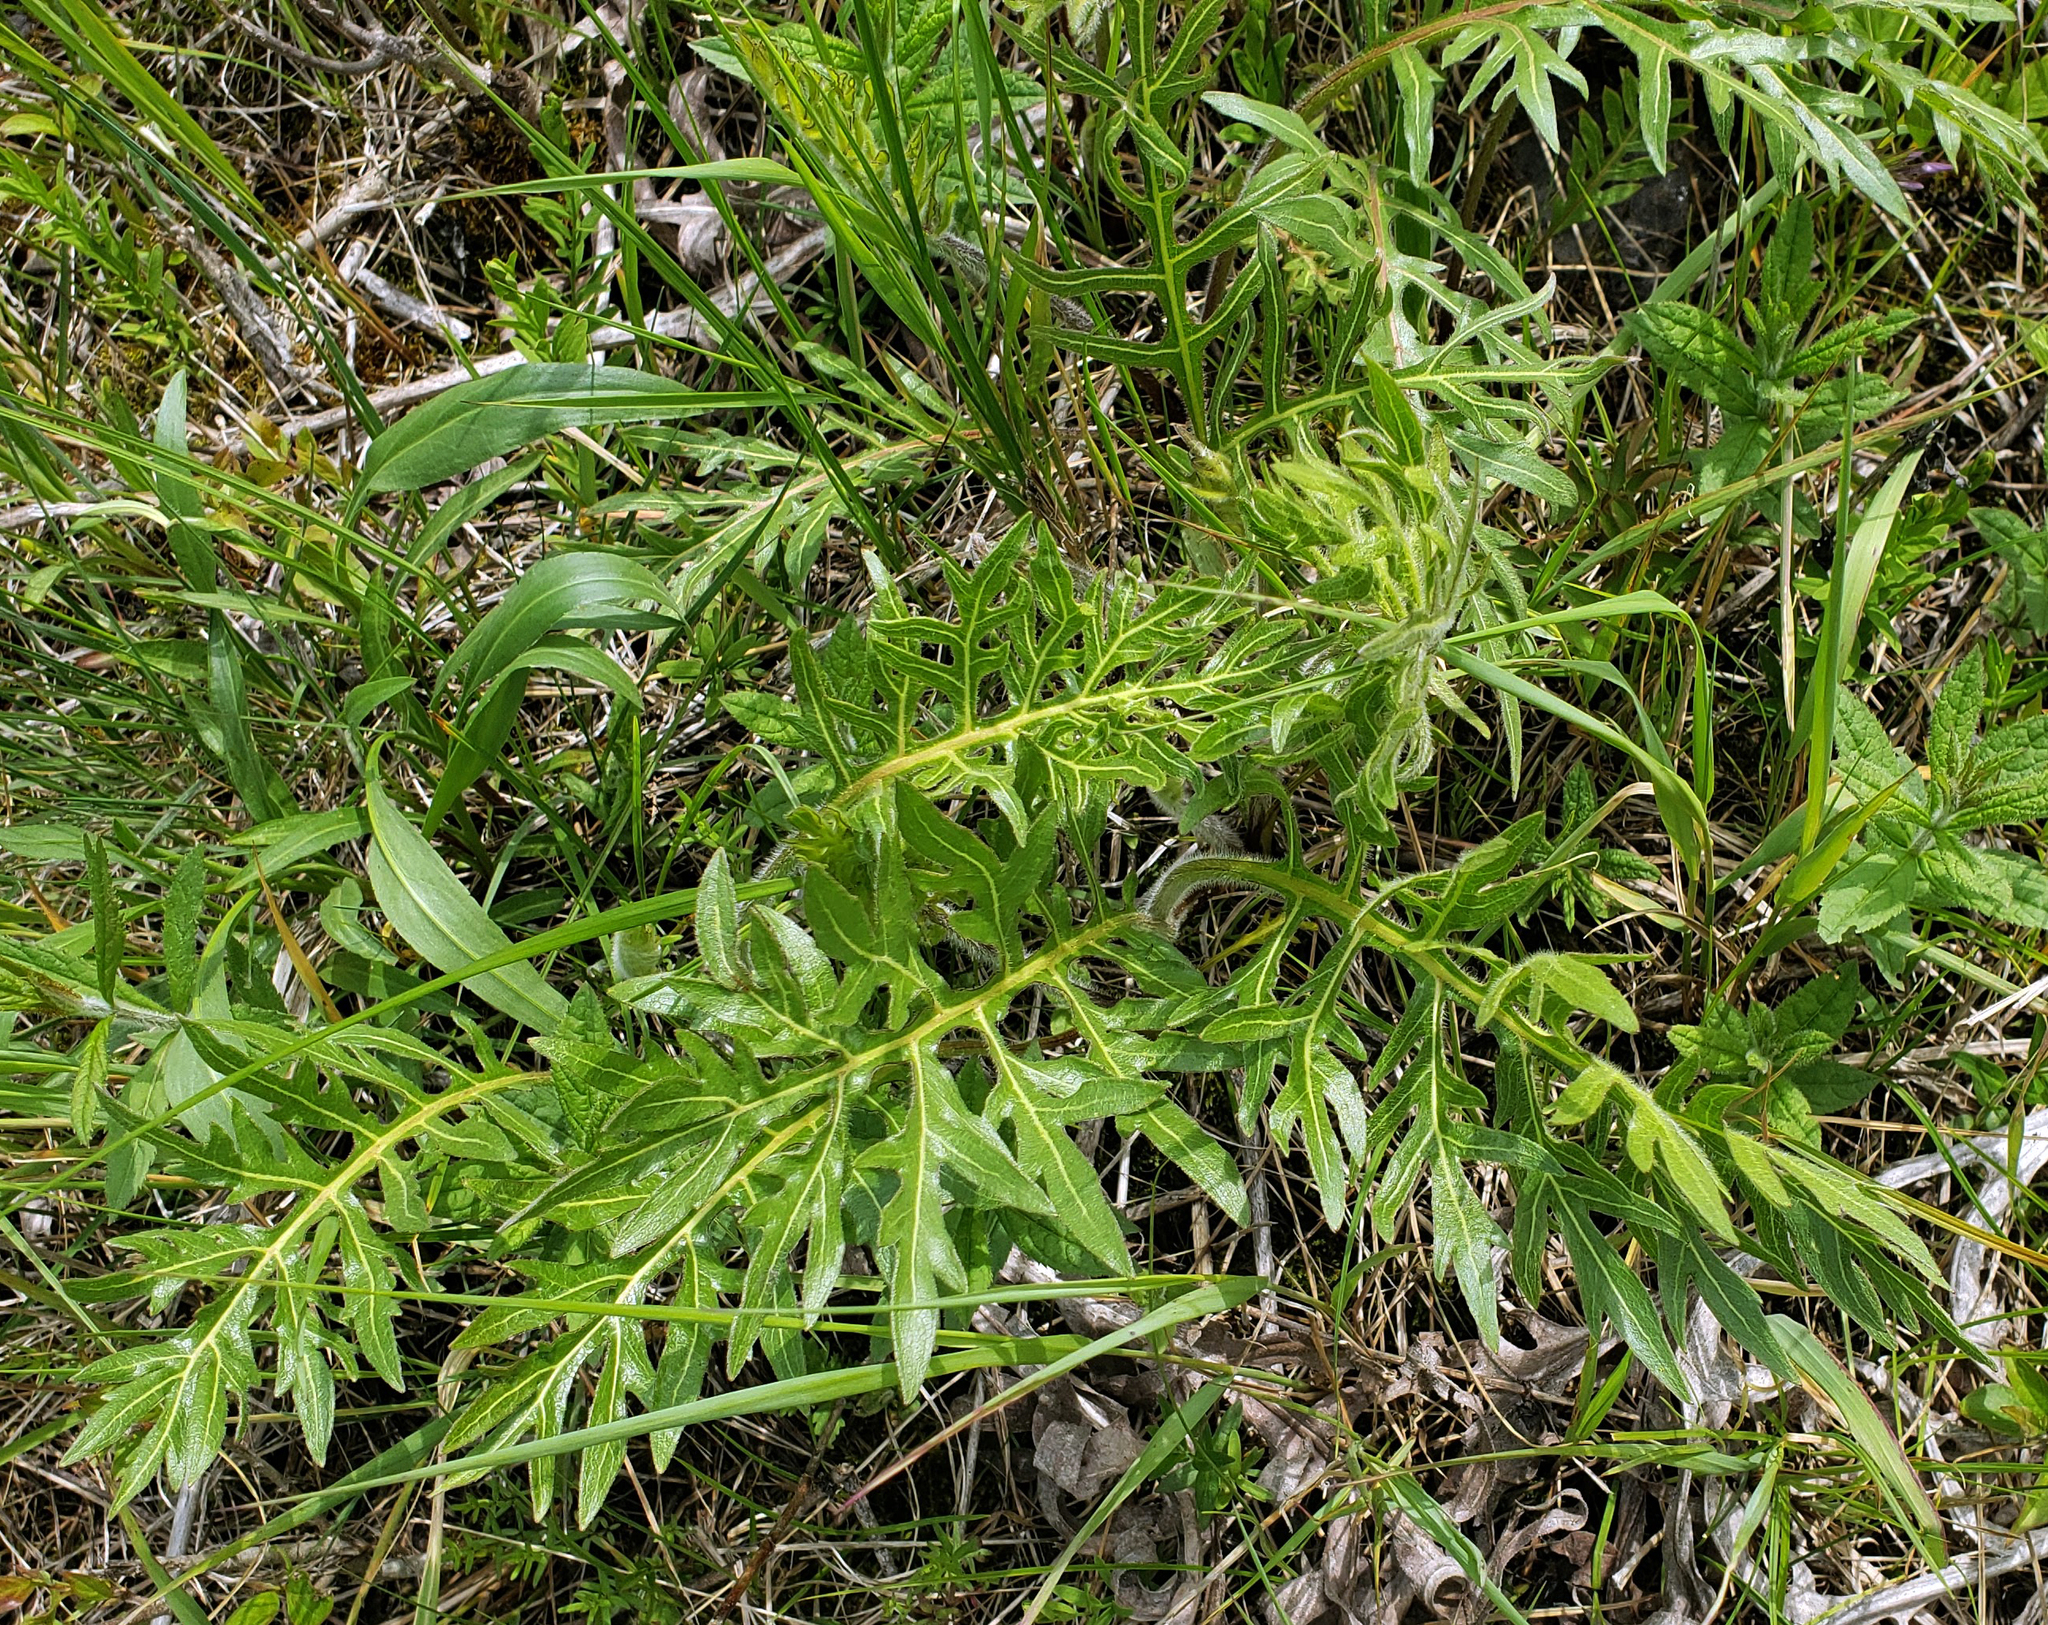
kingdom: Plantae
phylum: Tracheophyta
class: Magnoliopsida
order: Asterales
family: Asteraceae
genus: Silphium
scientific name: Silphium laciniatum
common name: Polarplant
